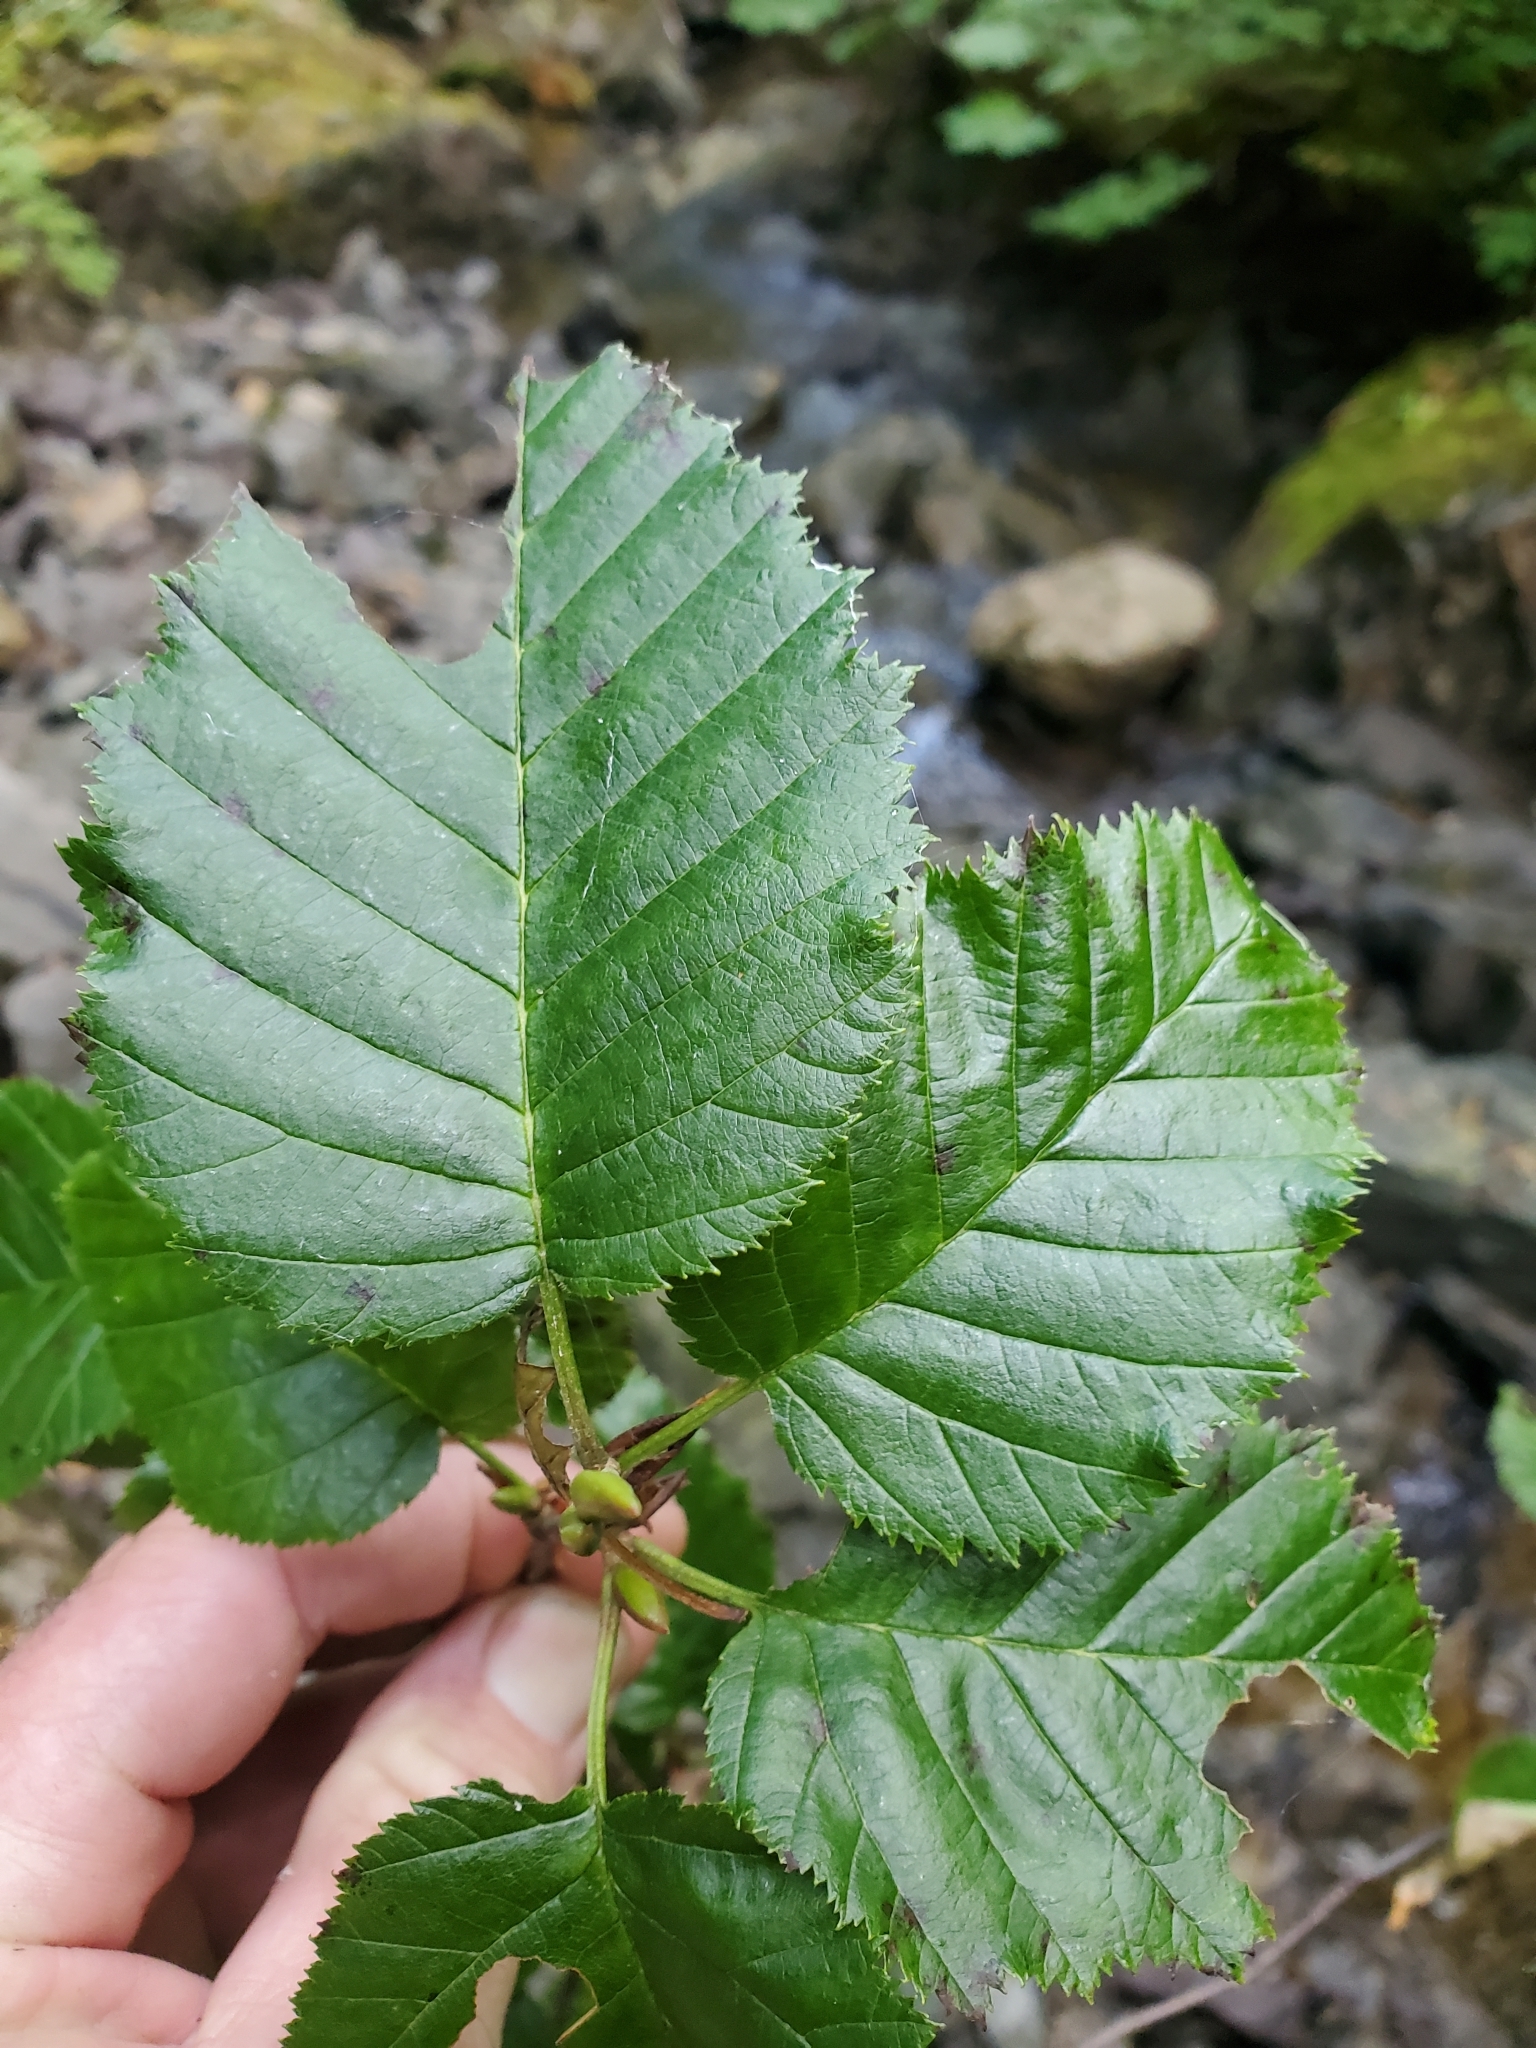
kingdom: Plantae
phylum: Tracheophyta
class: Magnoliopsida
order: Fagales
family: Betulaceae
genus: Alnus
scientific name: Alnus alnobetula
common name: Green alder
